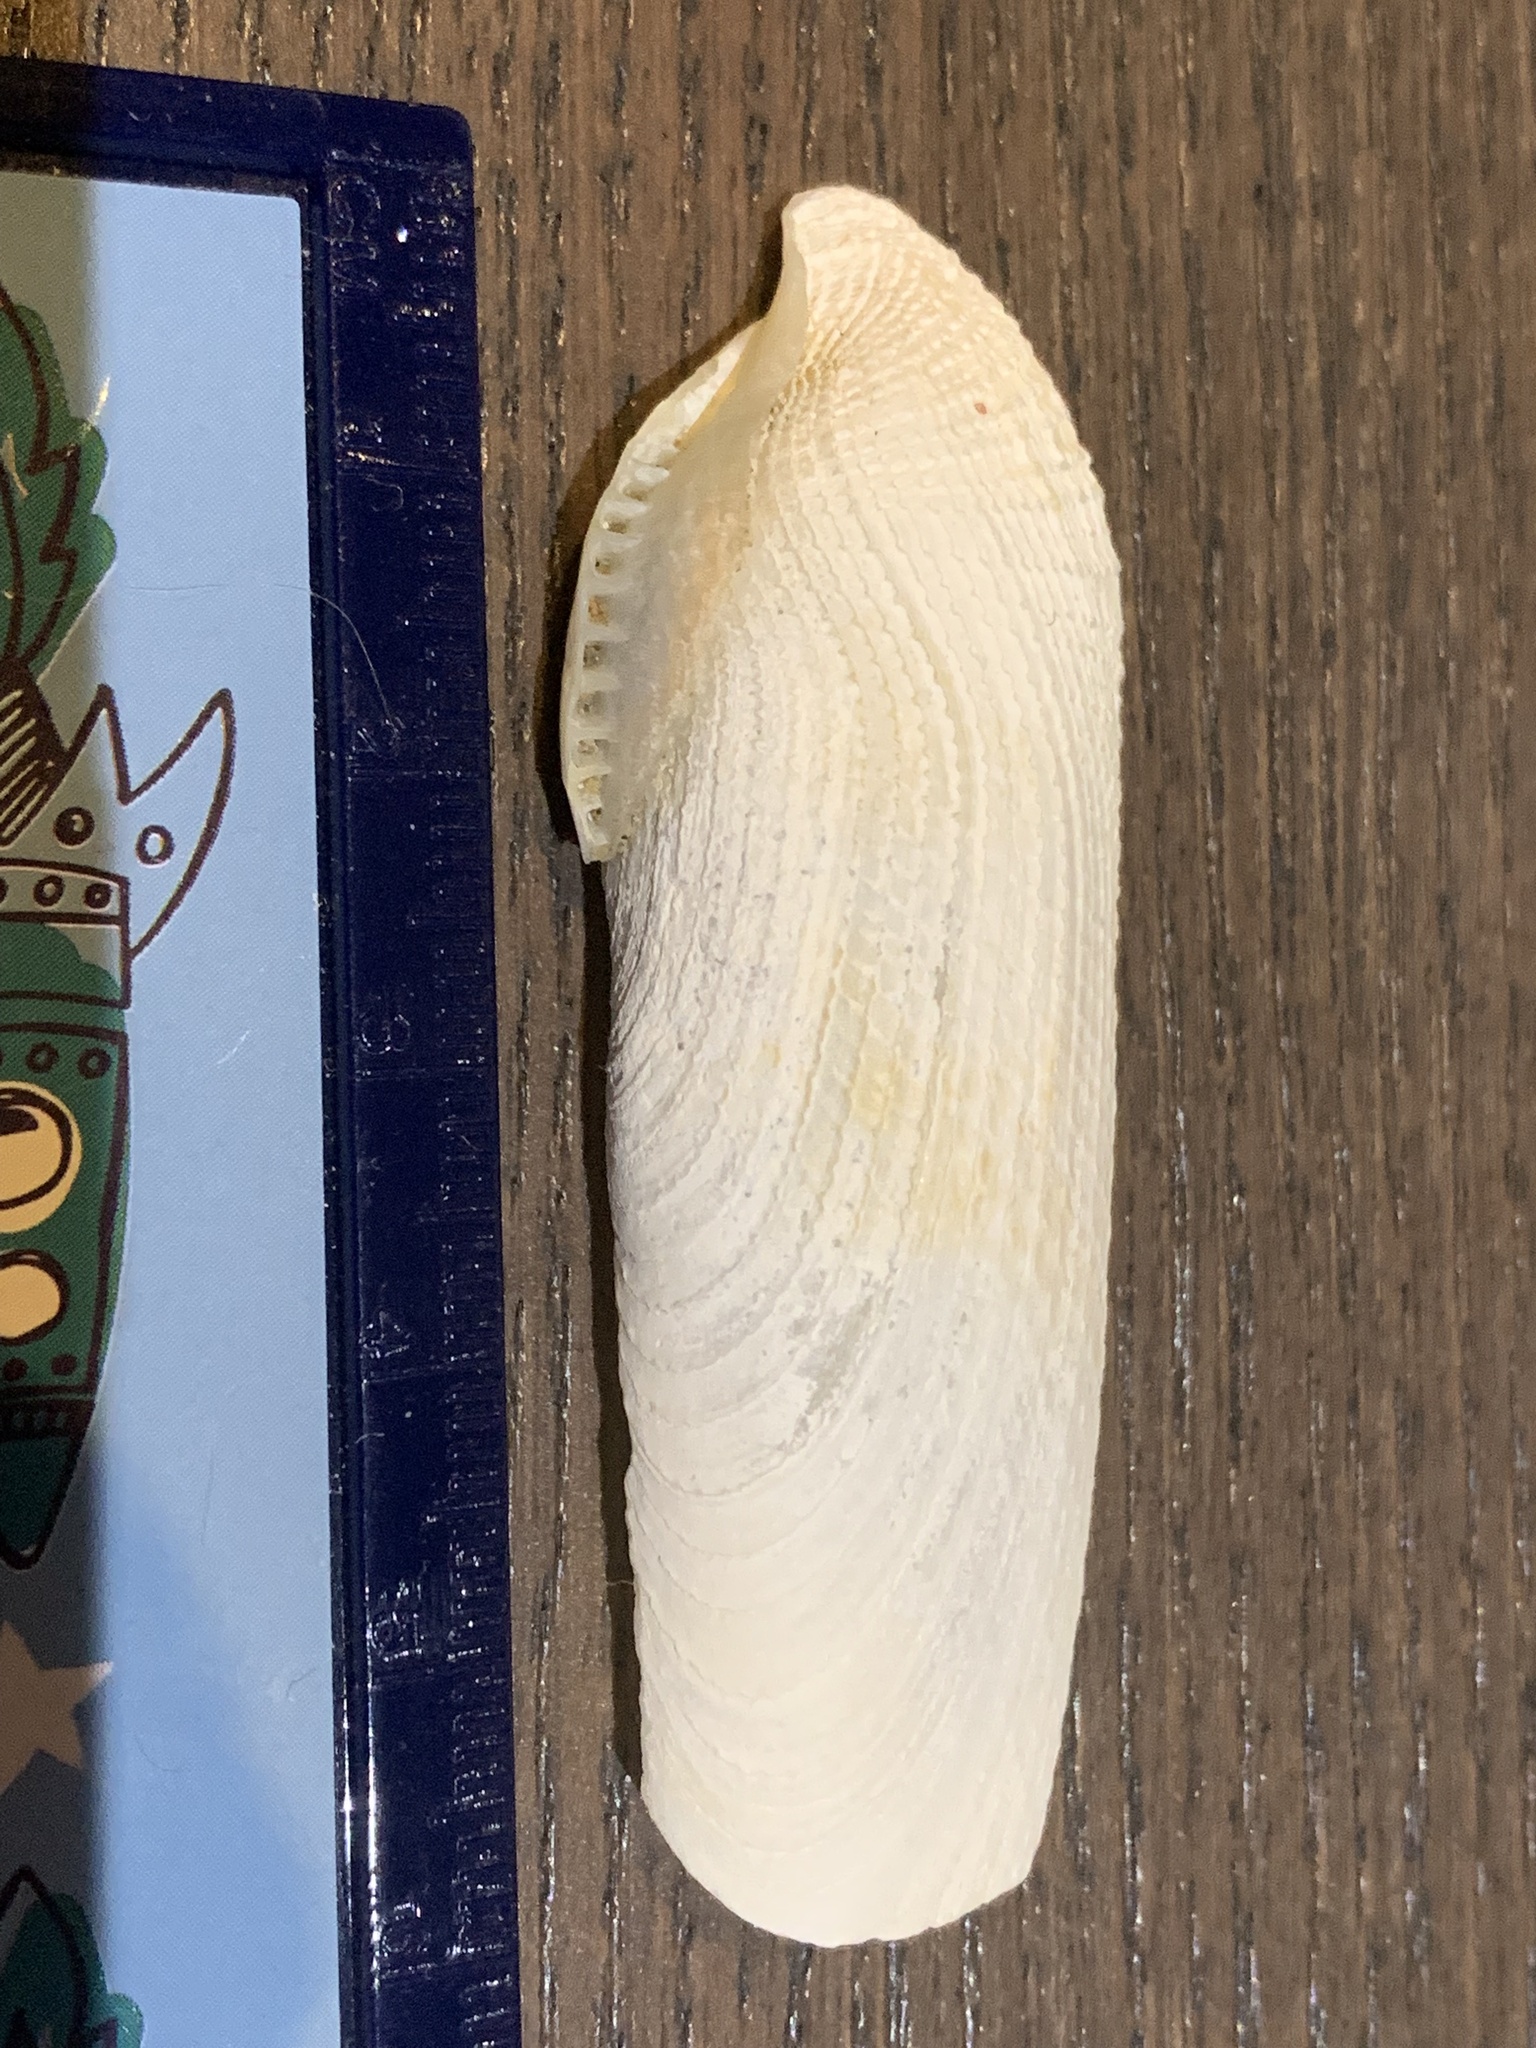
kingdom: Animalia
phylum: Mollusca
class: Bivalvia
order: Myida
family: Pholadidae
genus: Pholas
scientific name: Pholas dactylus
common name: Common piddock
